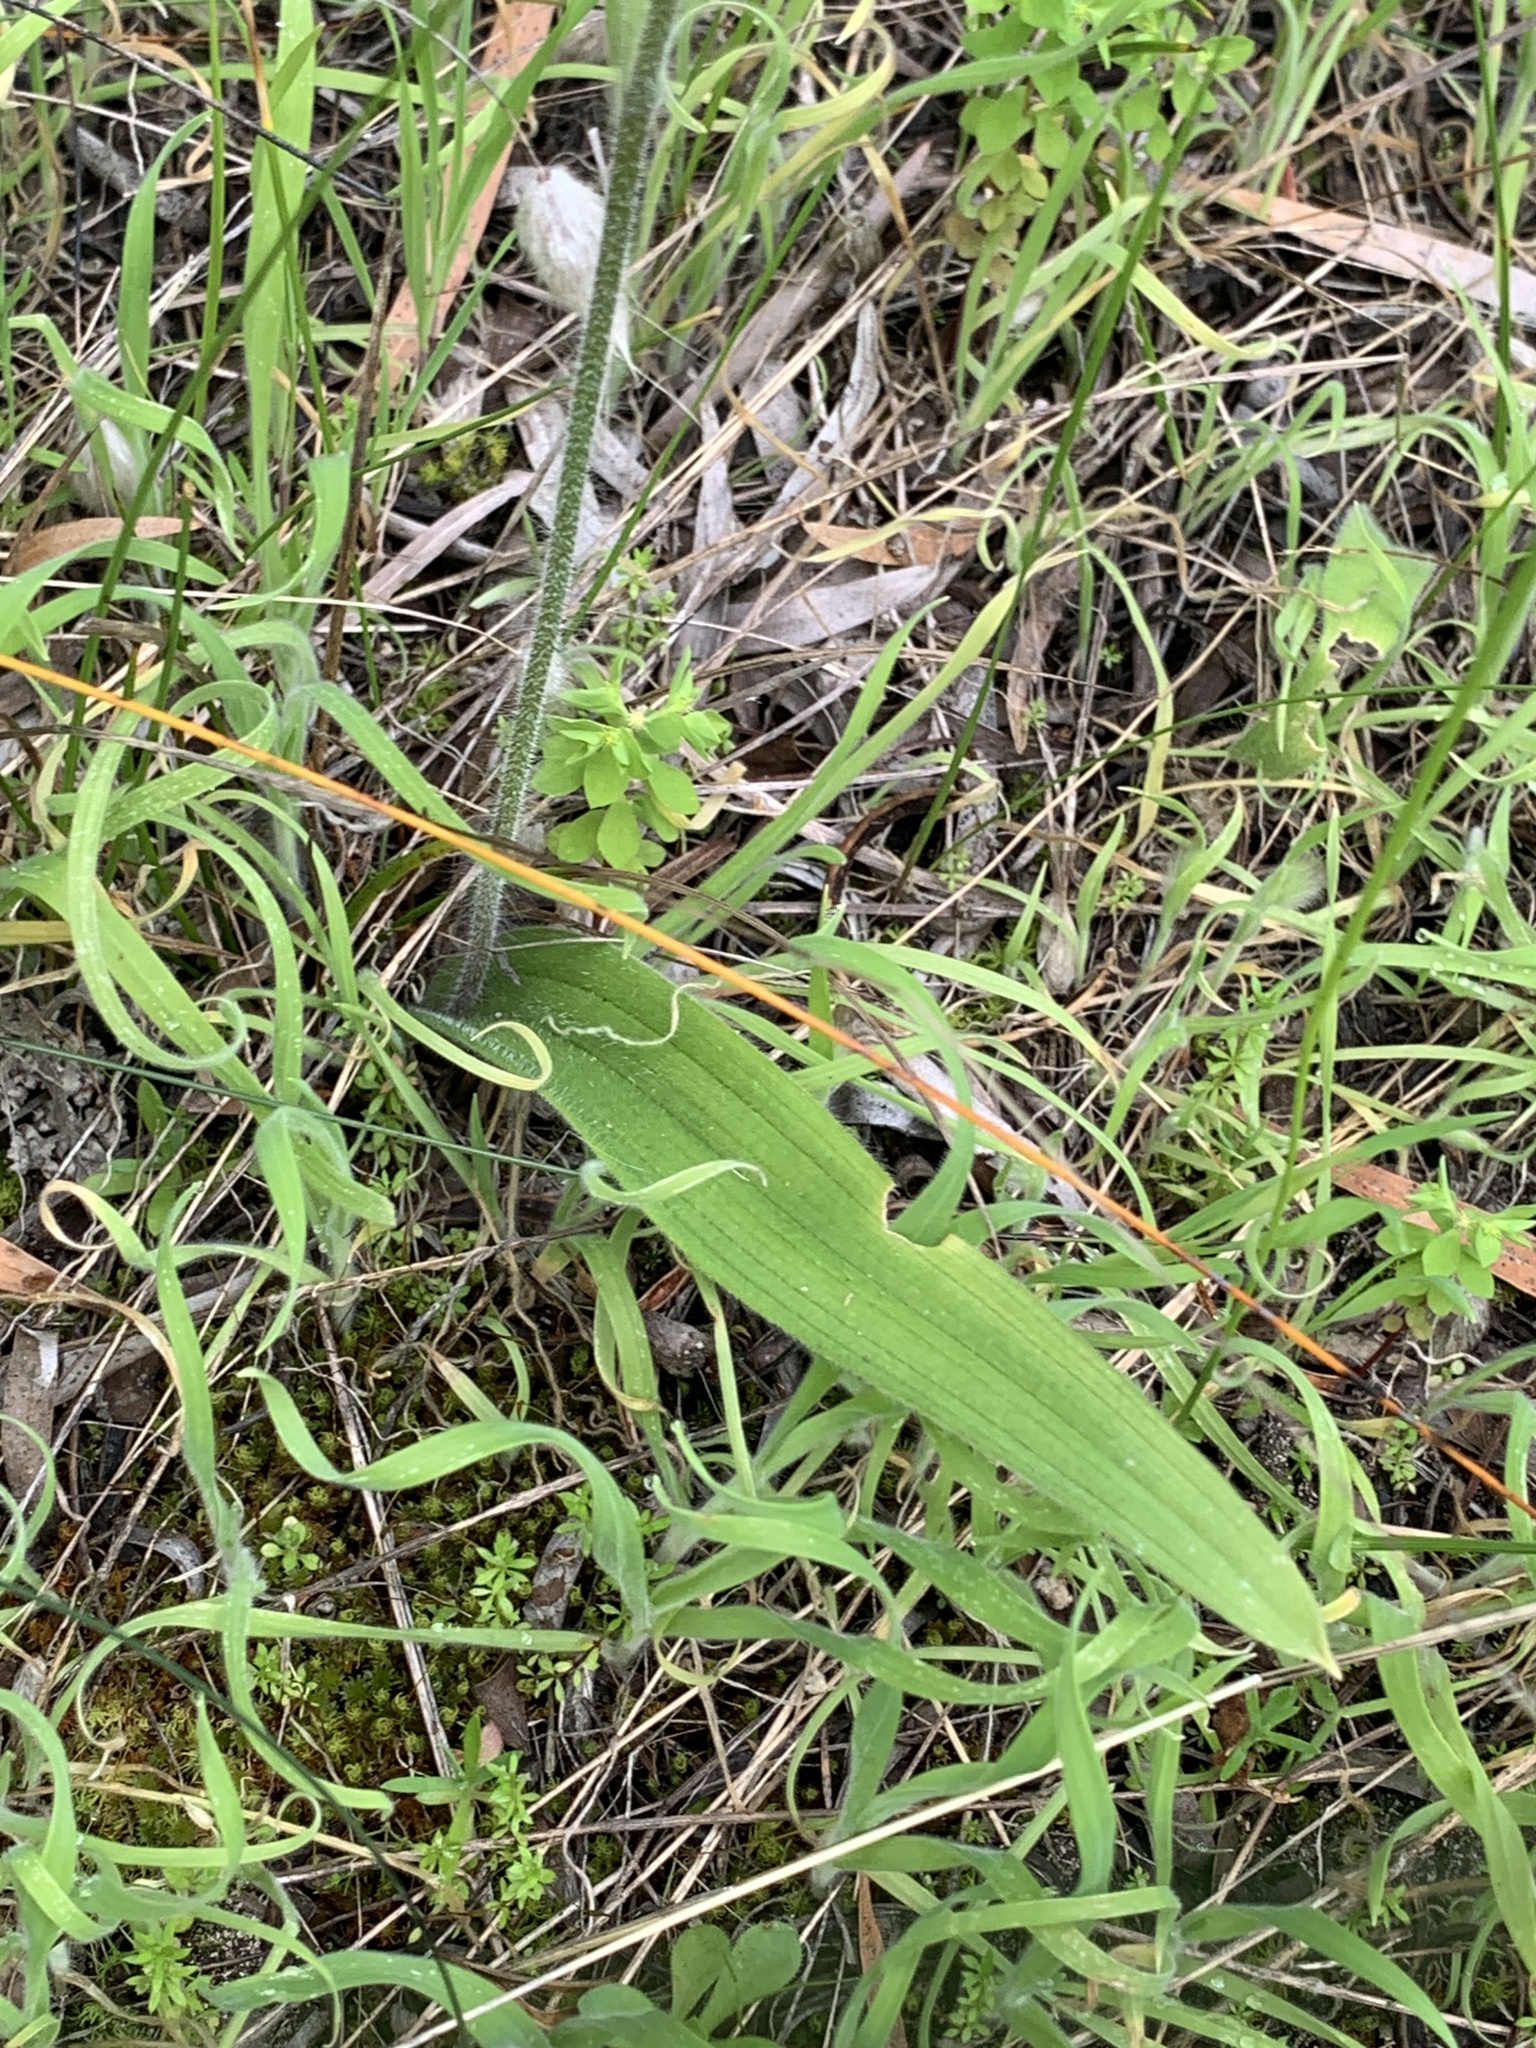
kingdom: Plantae
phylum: Tracheophyta
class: Liliopsida
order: Asparagales
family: Orchidaceae
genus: Caladenia
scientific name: Caladenia latifolia
